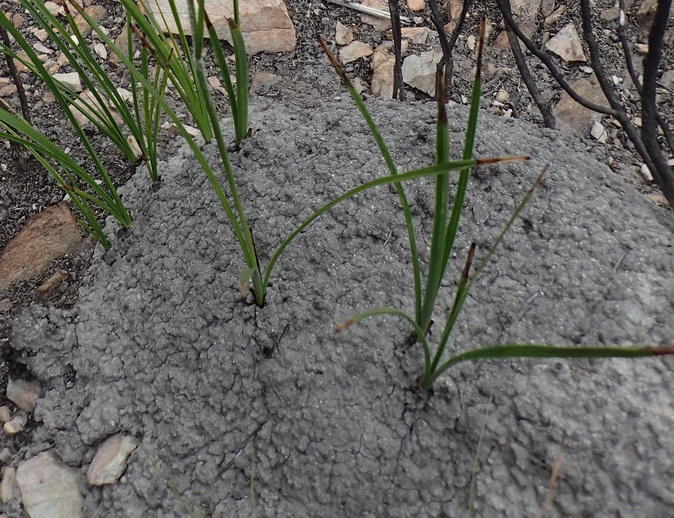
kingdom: Animalia
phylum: Arthropoda
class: Insecta
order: Blattodea
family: Termitidae
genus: Amitermes
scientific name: Amitermes hastatus
